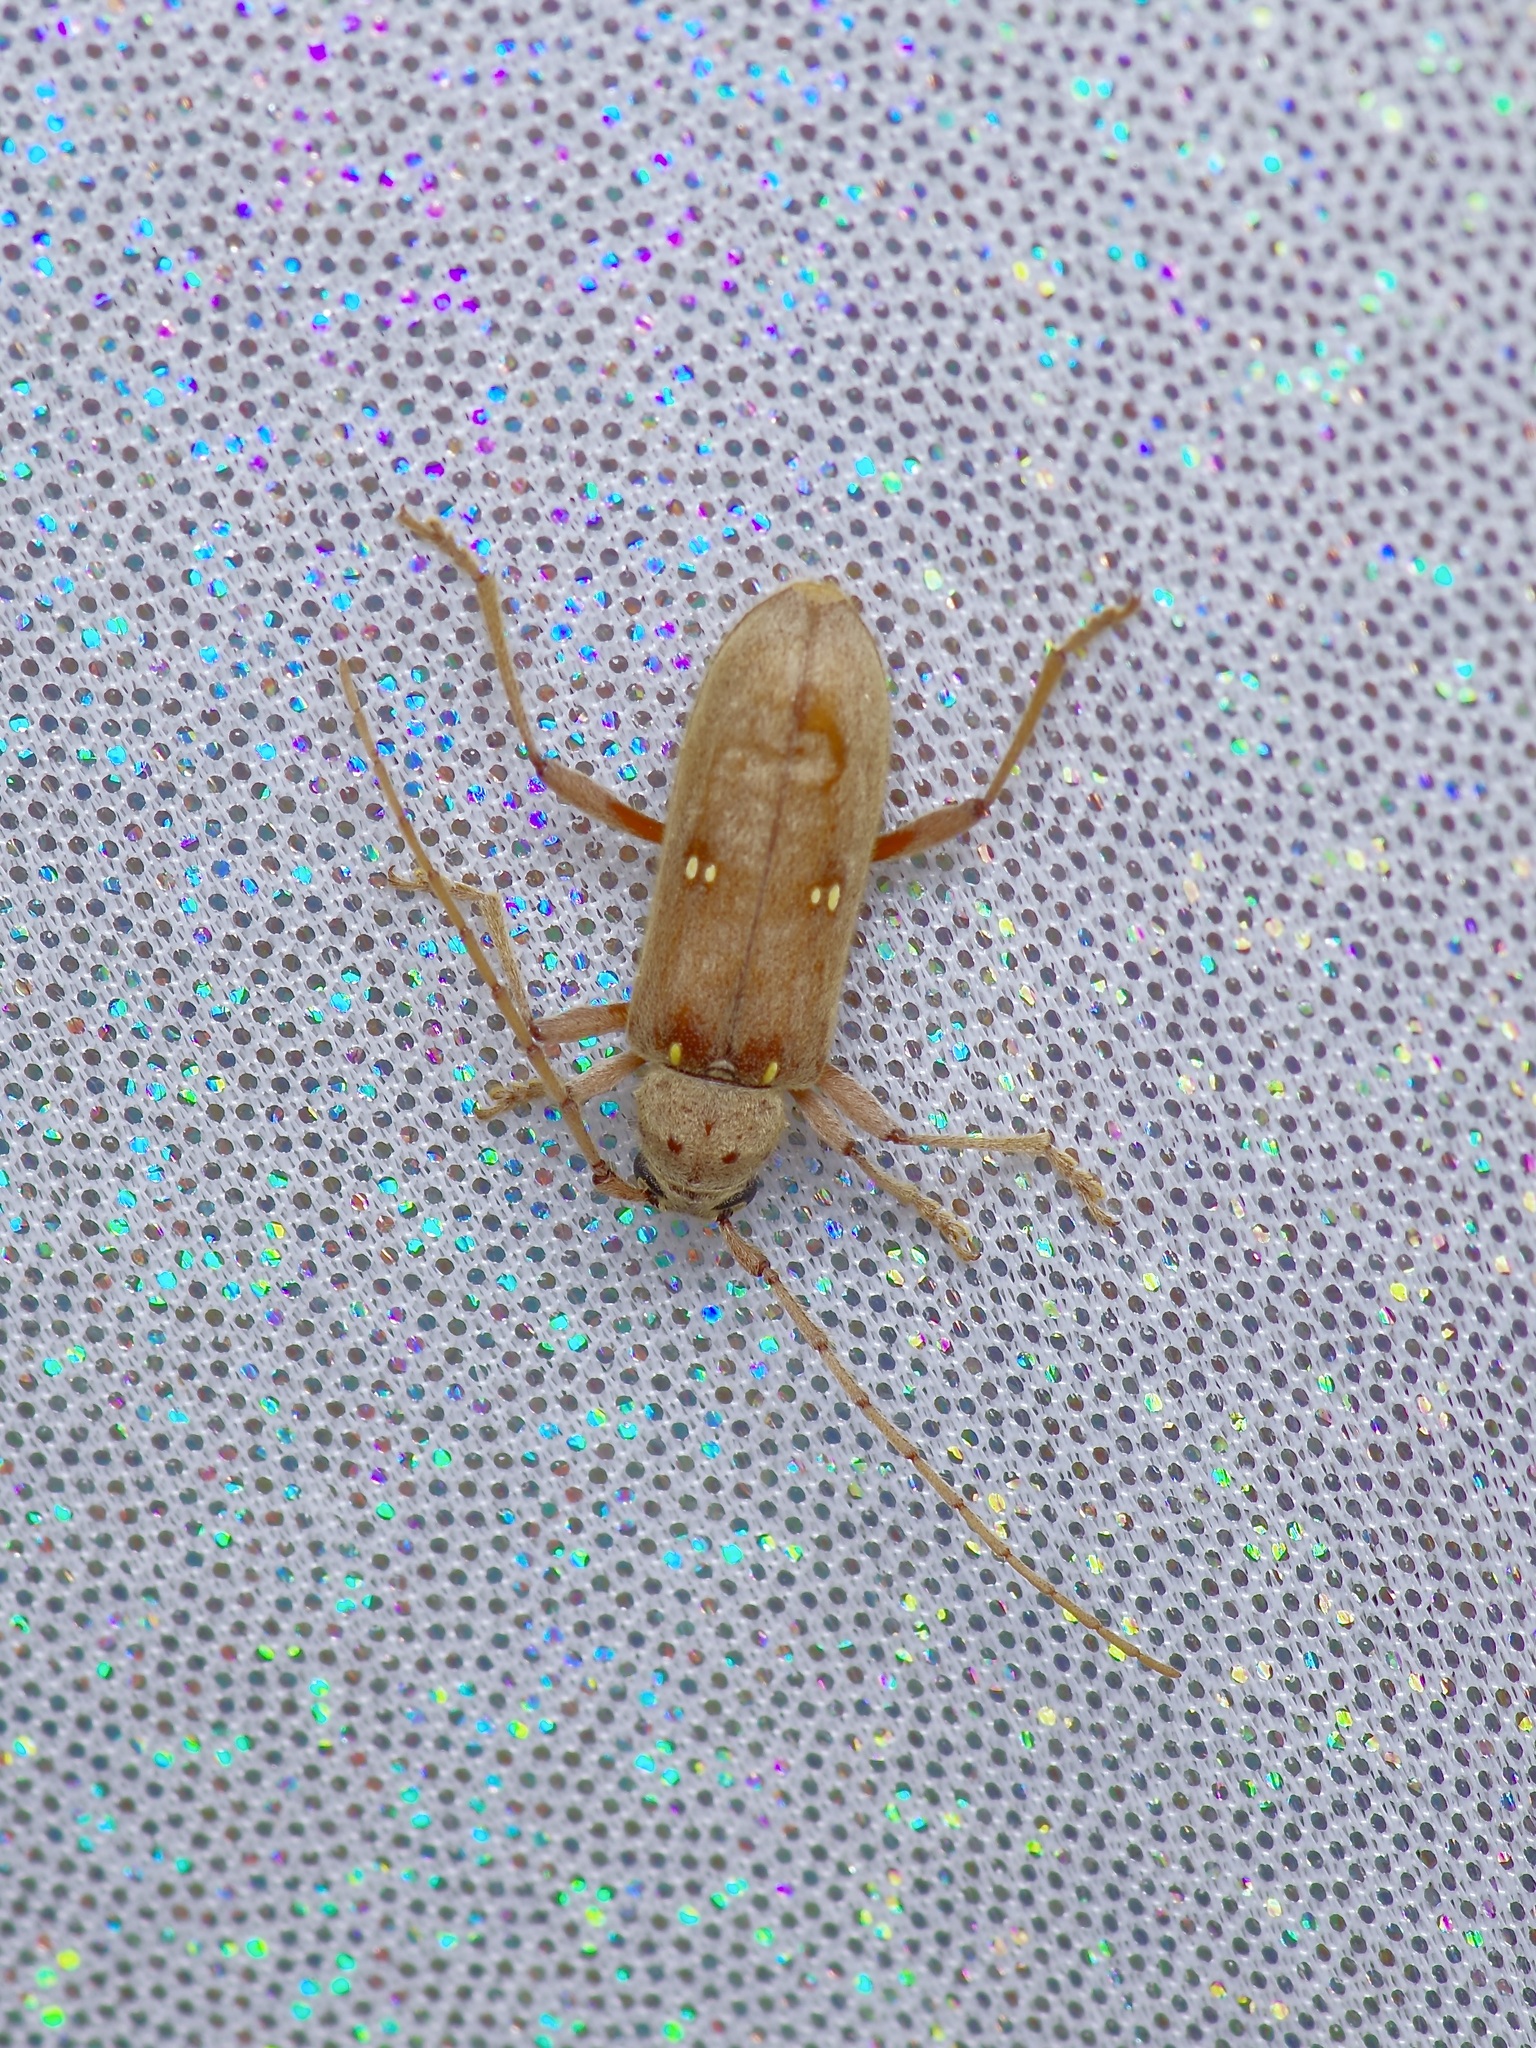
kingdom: Animalia
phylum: Arthropoda
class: Insecta
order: Coleoptera
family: Cerambycidae
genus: Eburia
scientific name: Eburia mutica
